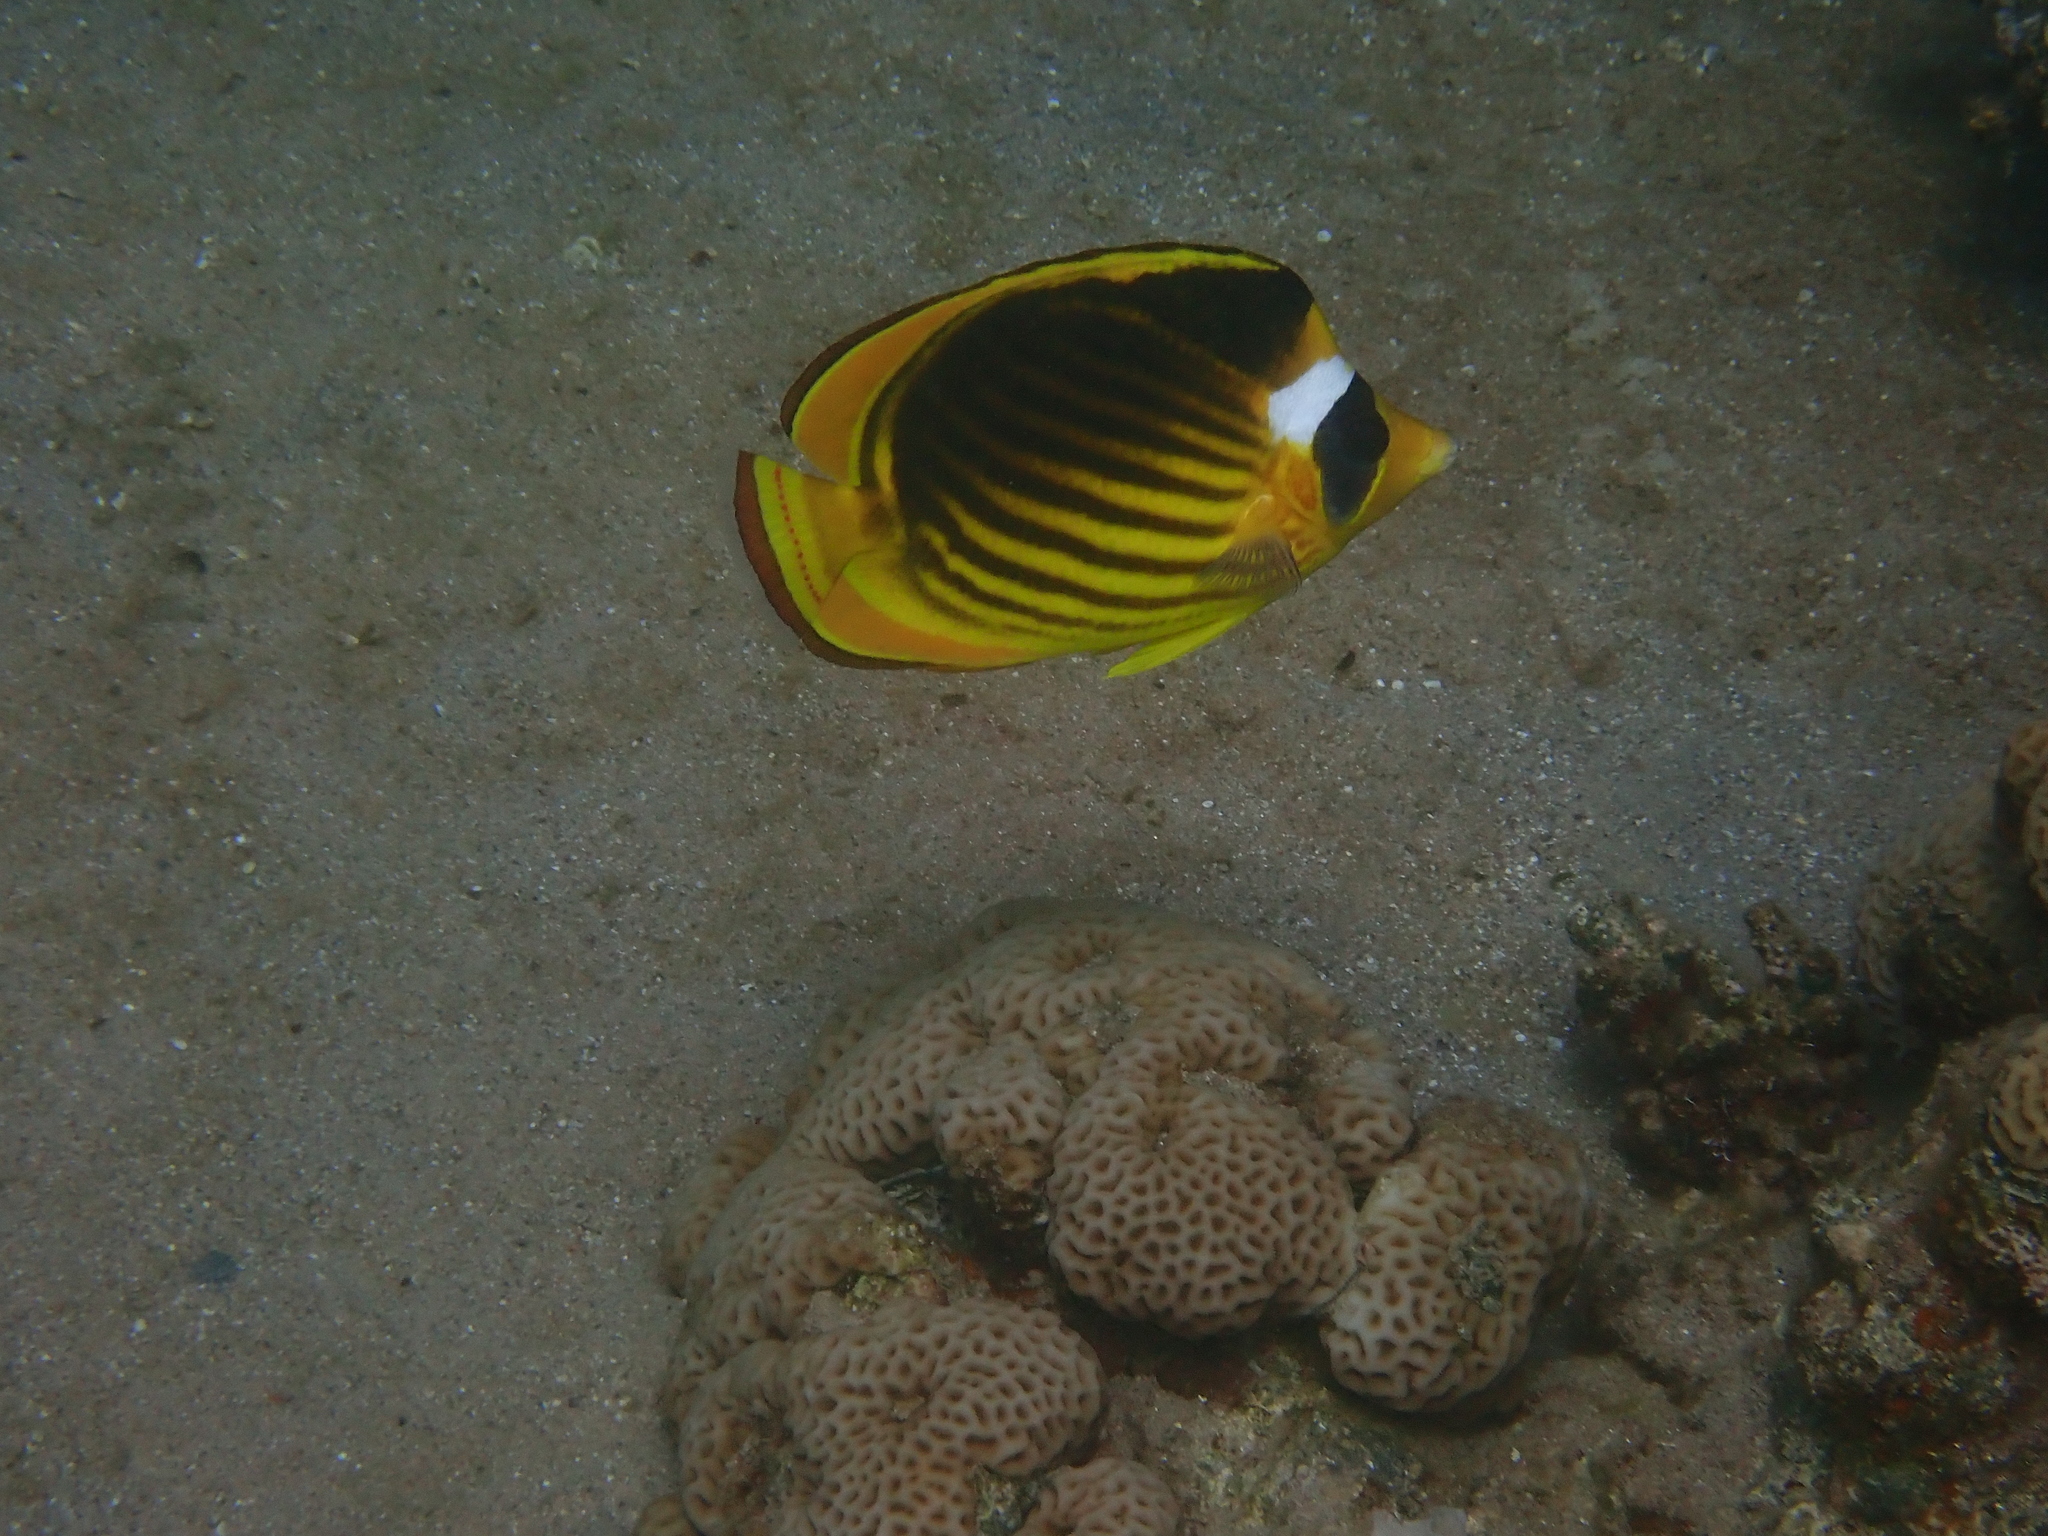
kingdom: Animalia
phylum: Chordata
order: Perciformes
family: Chaetodontidae
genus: Chaetodon
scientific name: Chaetodon fasciatus
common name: Diagonal butterflyfish
